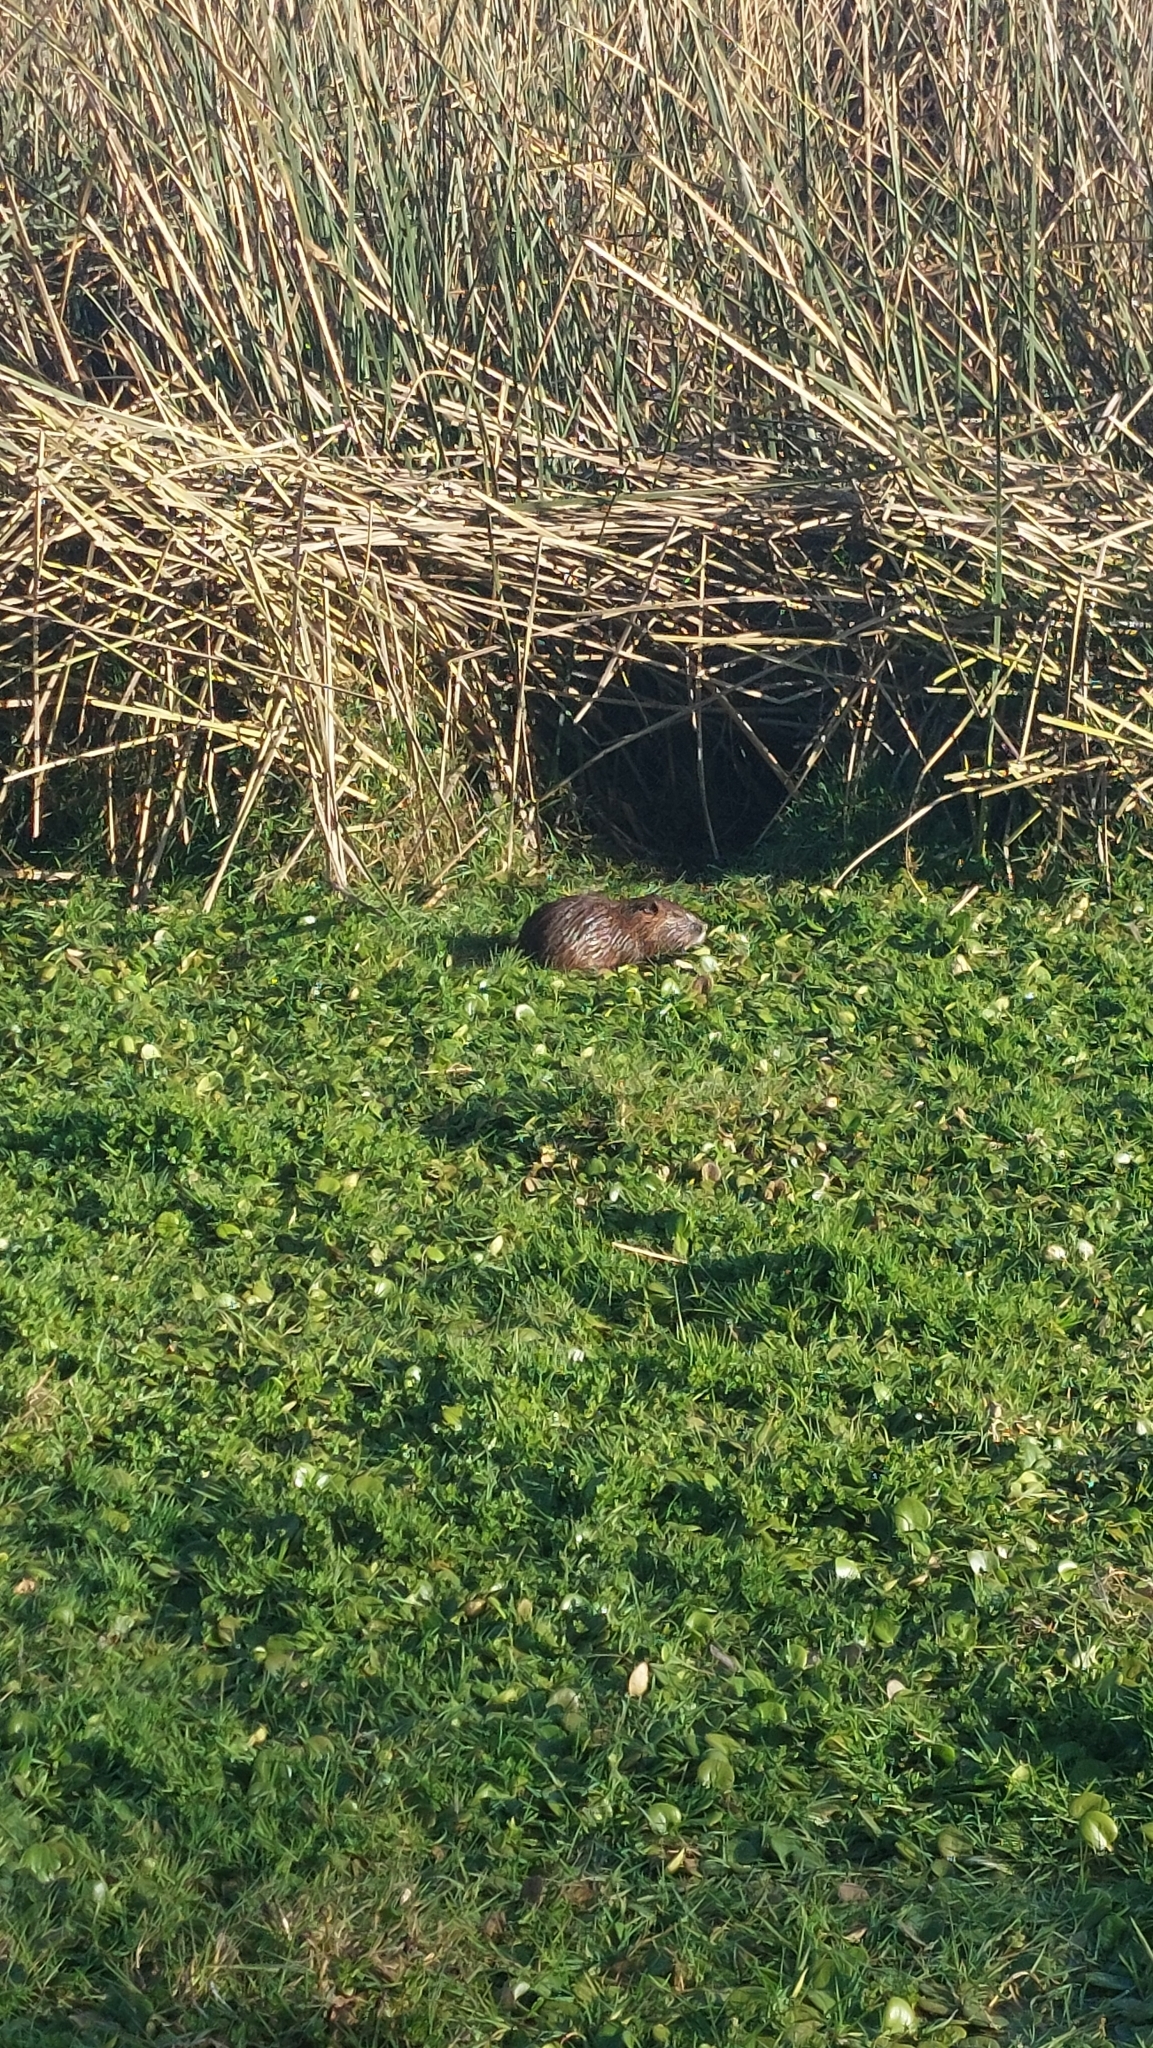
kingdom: Animalia
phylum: Chordata
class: Mammalia
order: Rodentia
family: Myocastoridae
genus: Myocastor
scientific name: Myocastor coypus
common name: Coypu
